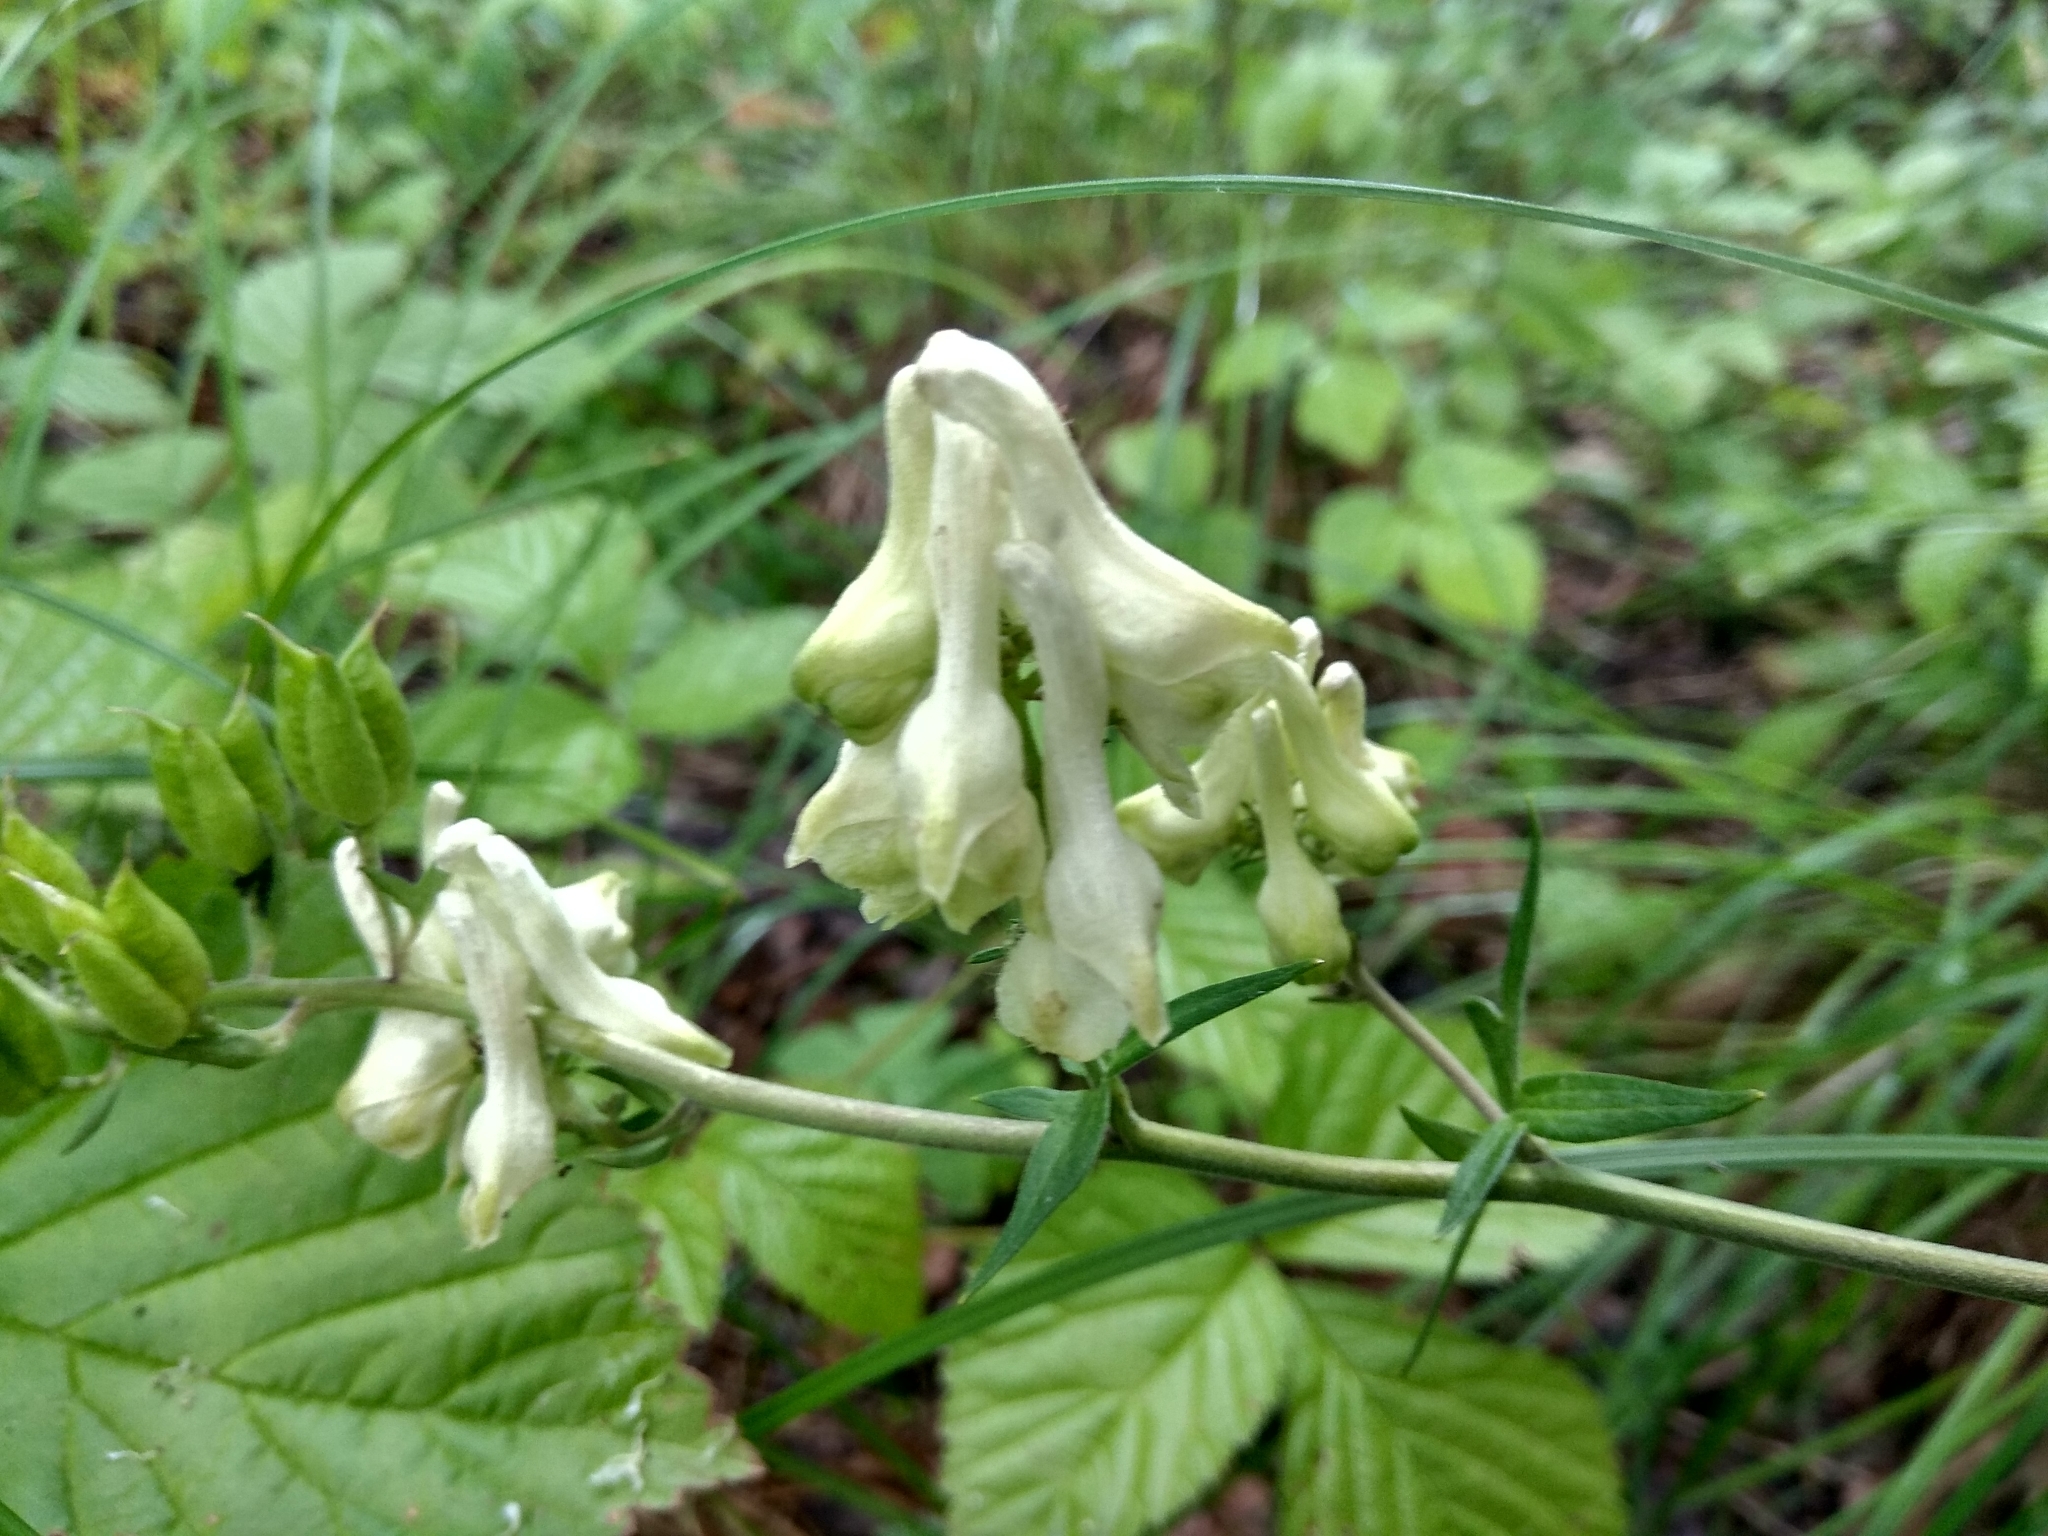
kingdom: Plantae
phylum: Tracheophyta
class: Magnoliopsida
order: Ranunculales
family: Ranunculaceae
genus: Aconitum
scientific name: Aconitum lasiostomum
